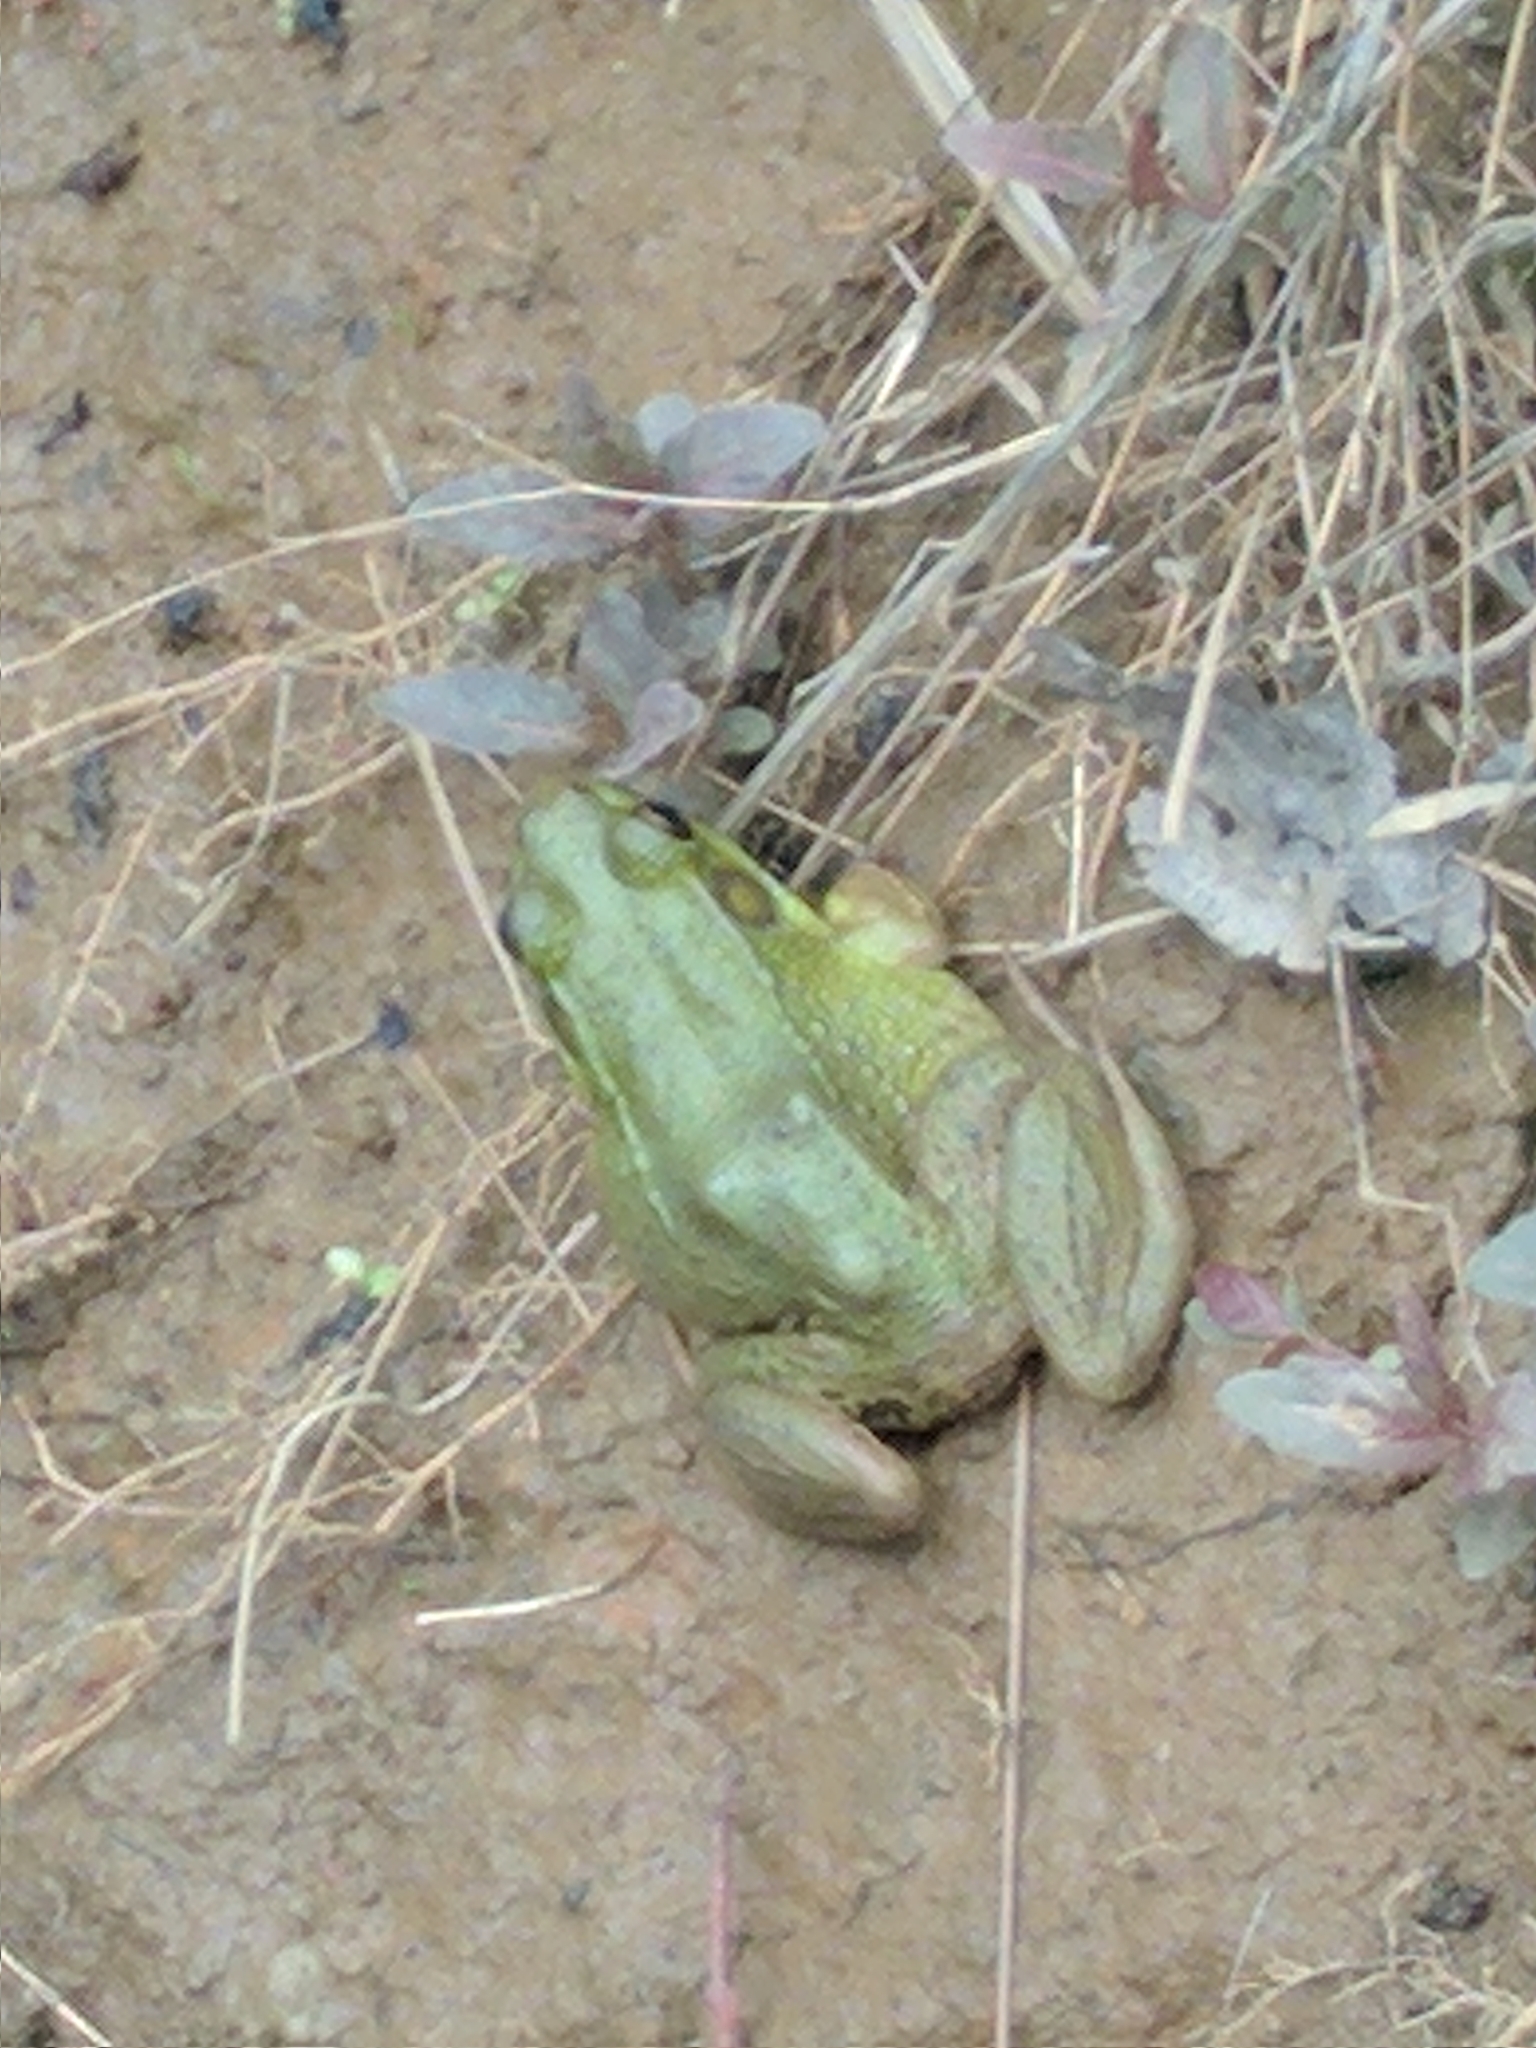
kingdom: Animalia
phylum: Chordata
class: Amphibia
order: Anura
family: Ranidae
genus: Lithobates
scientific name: Lithobates clamitans
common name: Green frog
